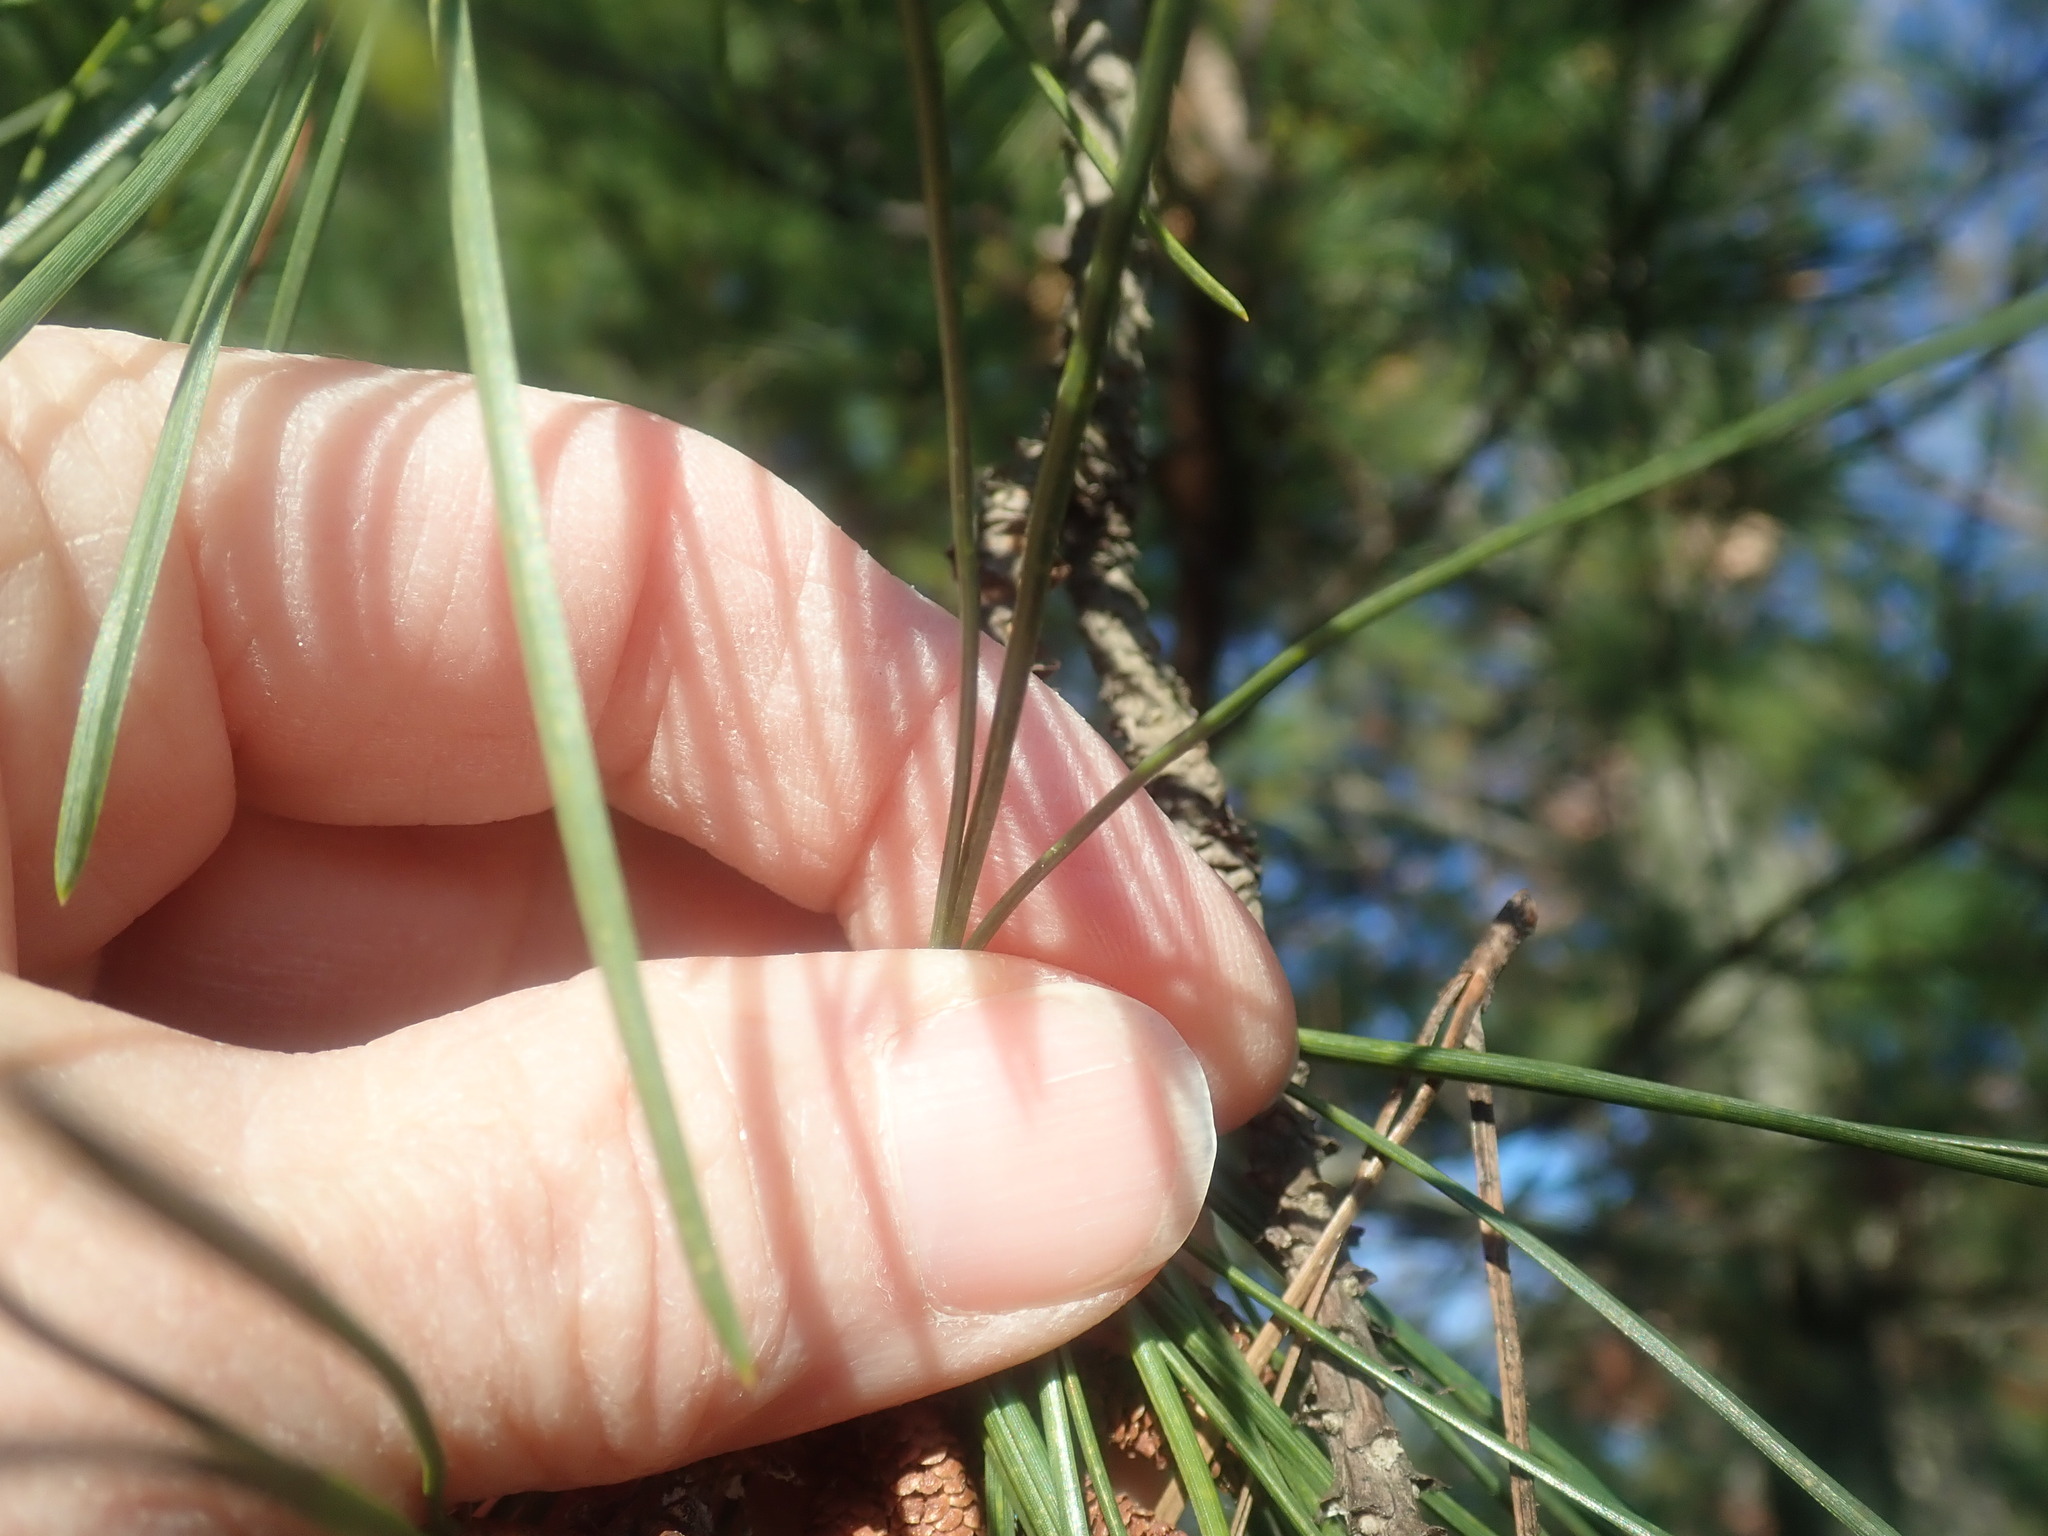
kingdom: Plantae
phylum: Tracheophyta
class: Pinopsida
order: Pinales
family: Pinaceae
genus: Pinus
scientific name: Pinus rigida
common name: Pitch pine
